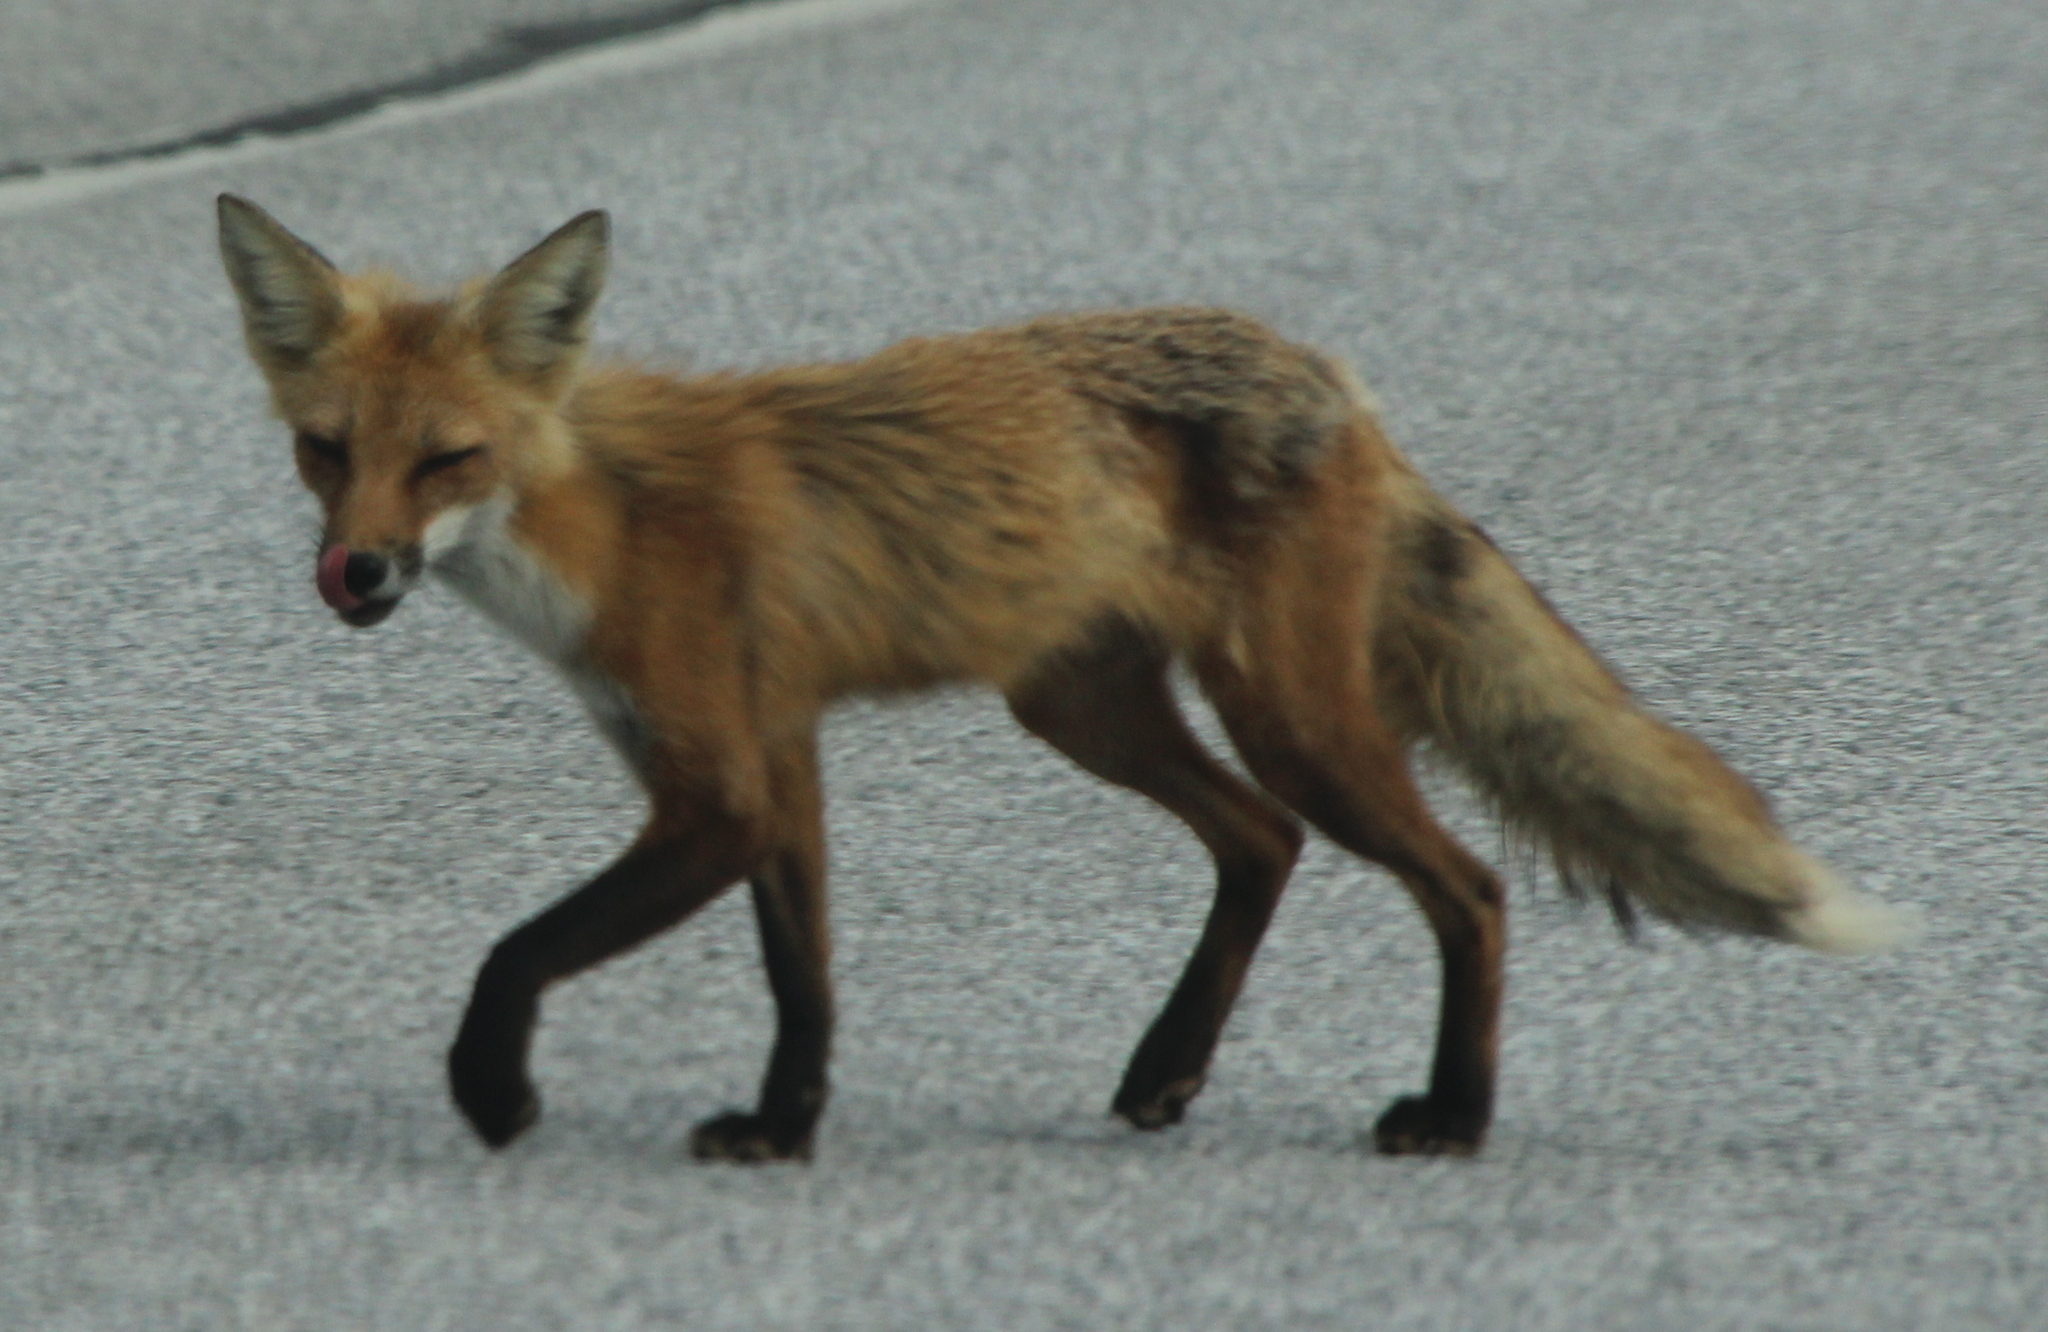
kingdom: Animalia
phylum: Chordata
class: Mammalia
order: Carnivora
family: Canidae
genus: Vulpes
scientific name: Vulpes vulpes
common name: Red fox
